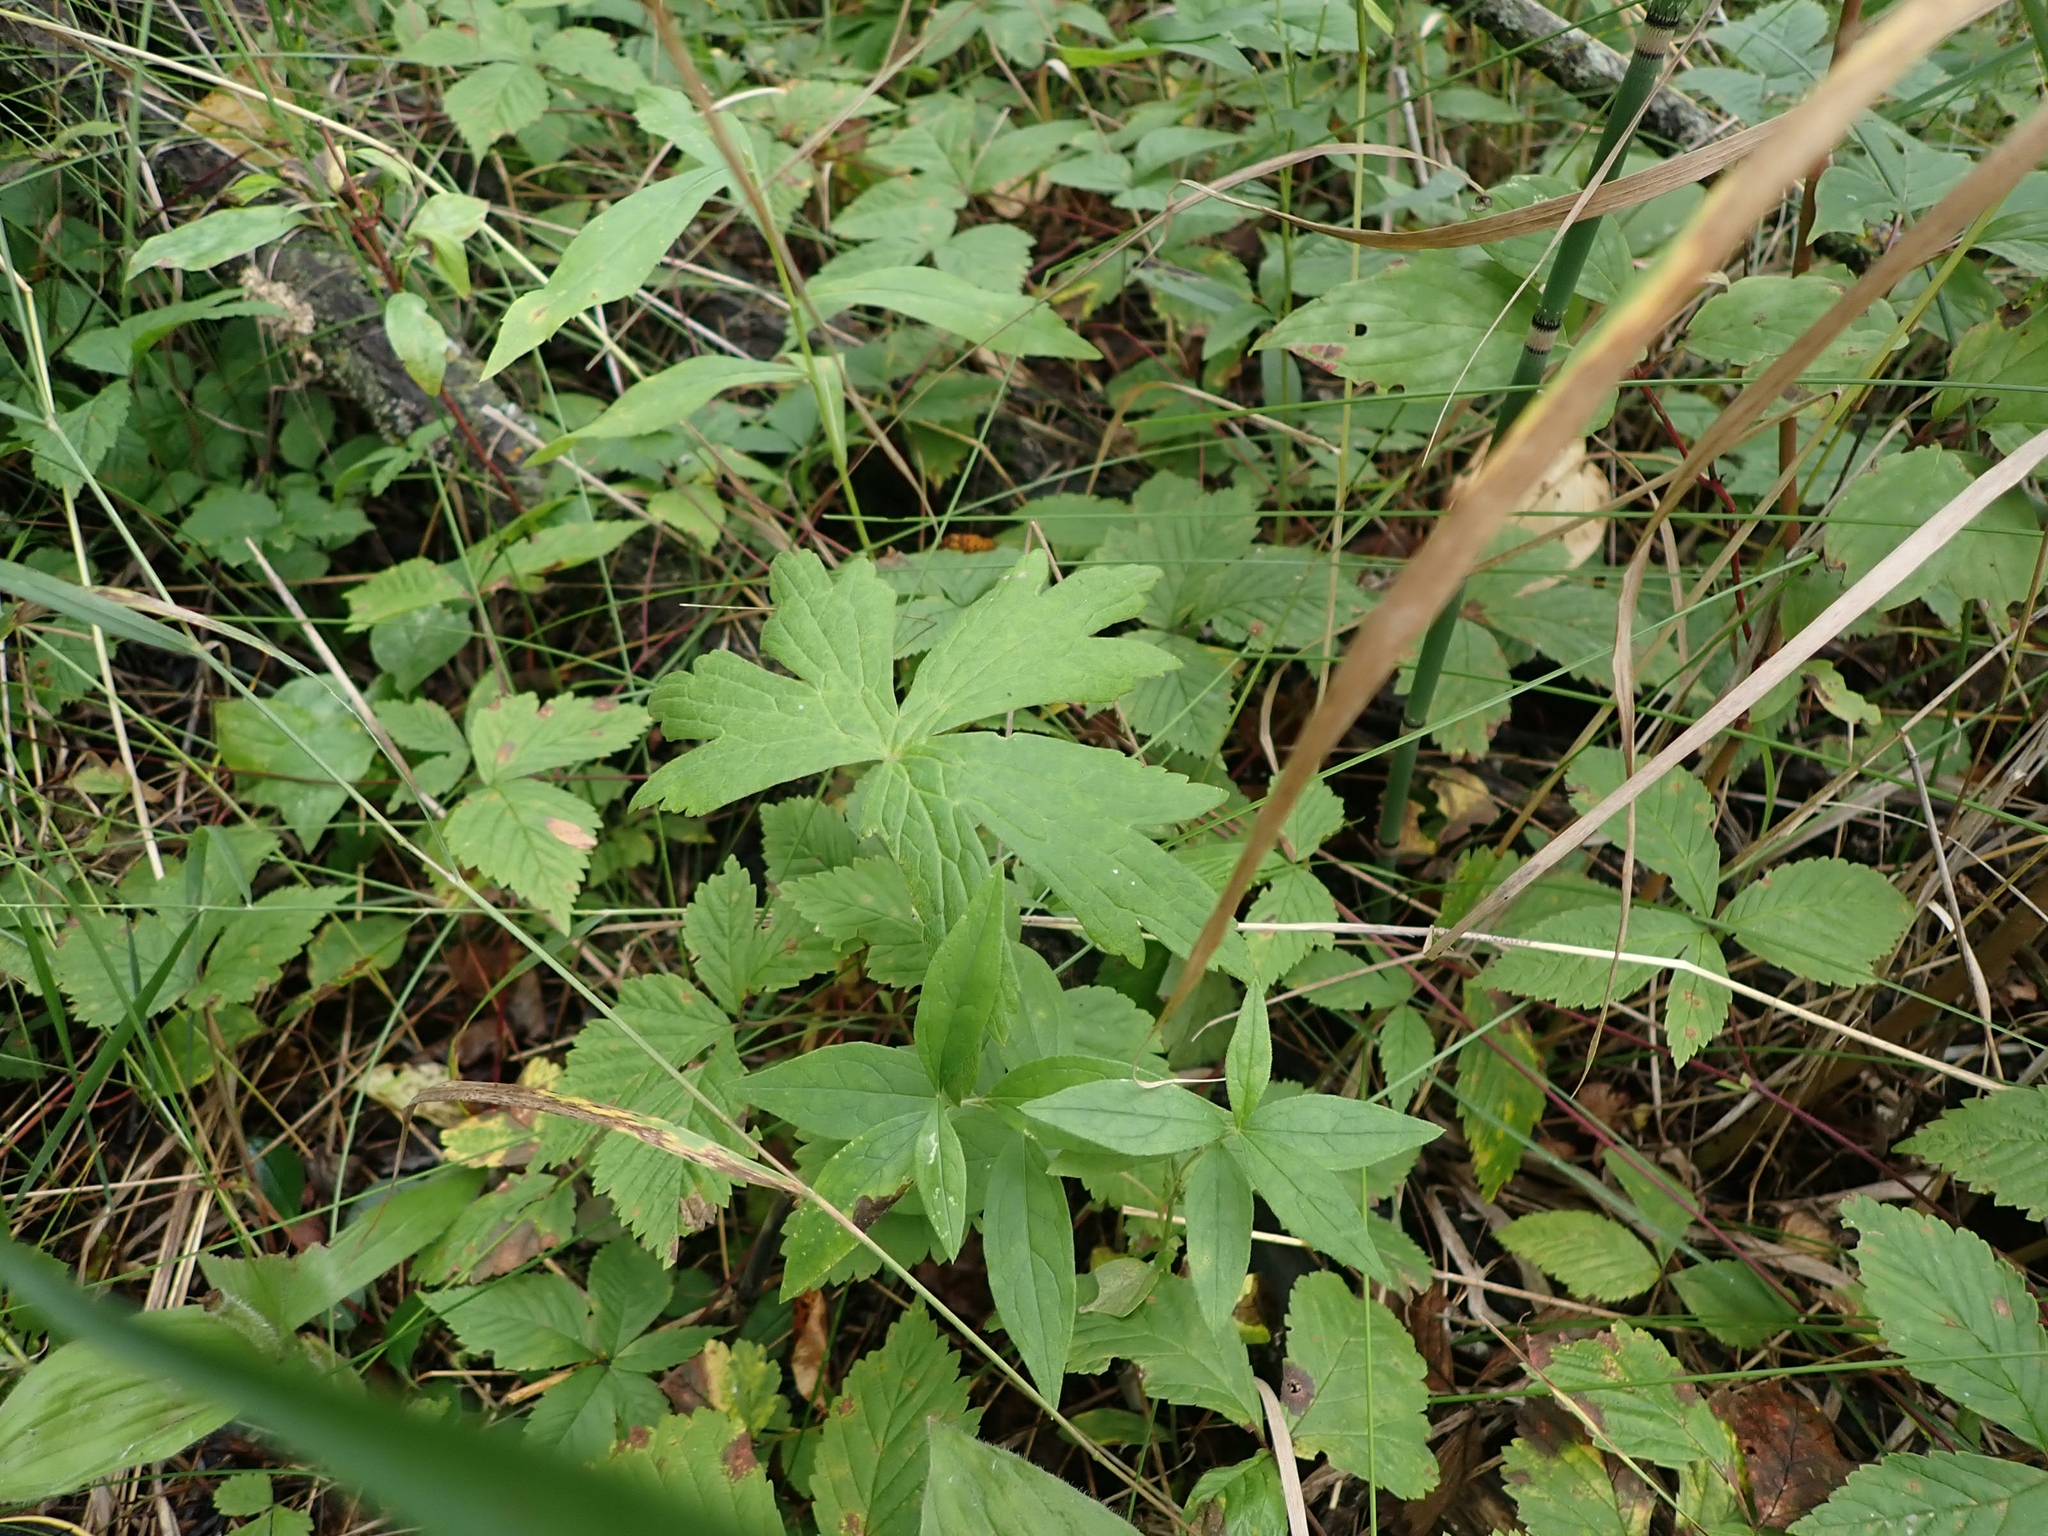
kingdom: Plantae
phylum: Tracheophyta
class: Magnoliopsida
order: Ranunculales
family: Ranunculaceae
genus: Anemonastrum
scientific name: Anemonastrum canadense
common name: Canada anemone
